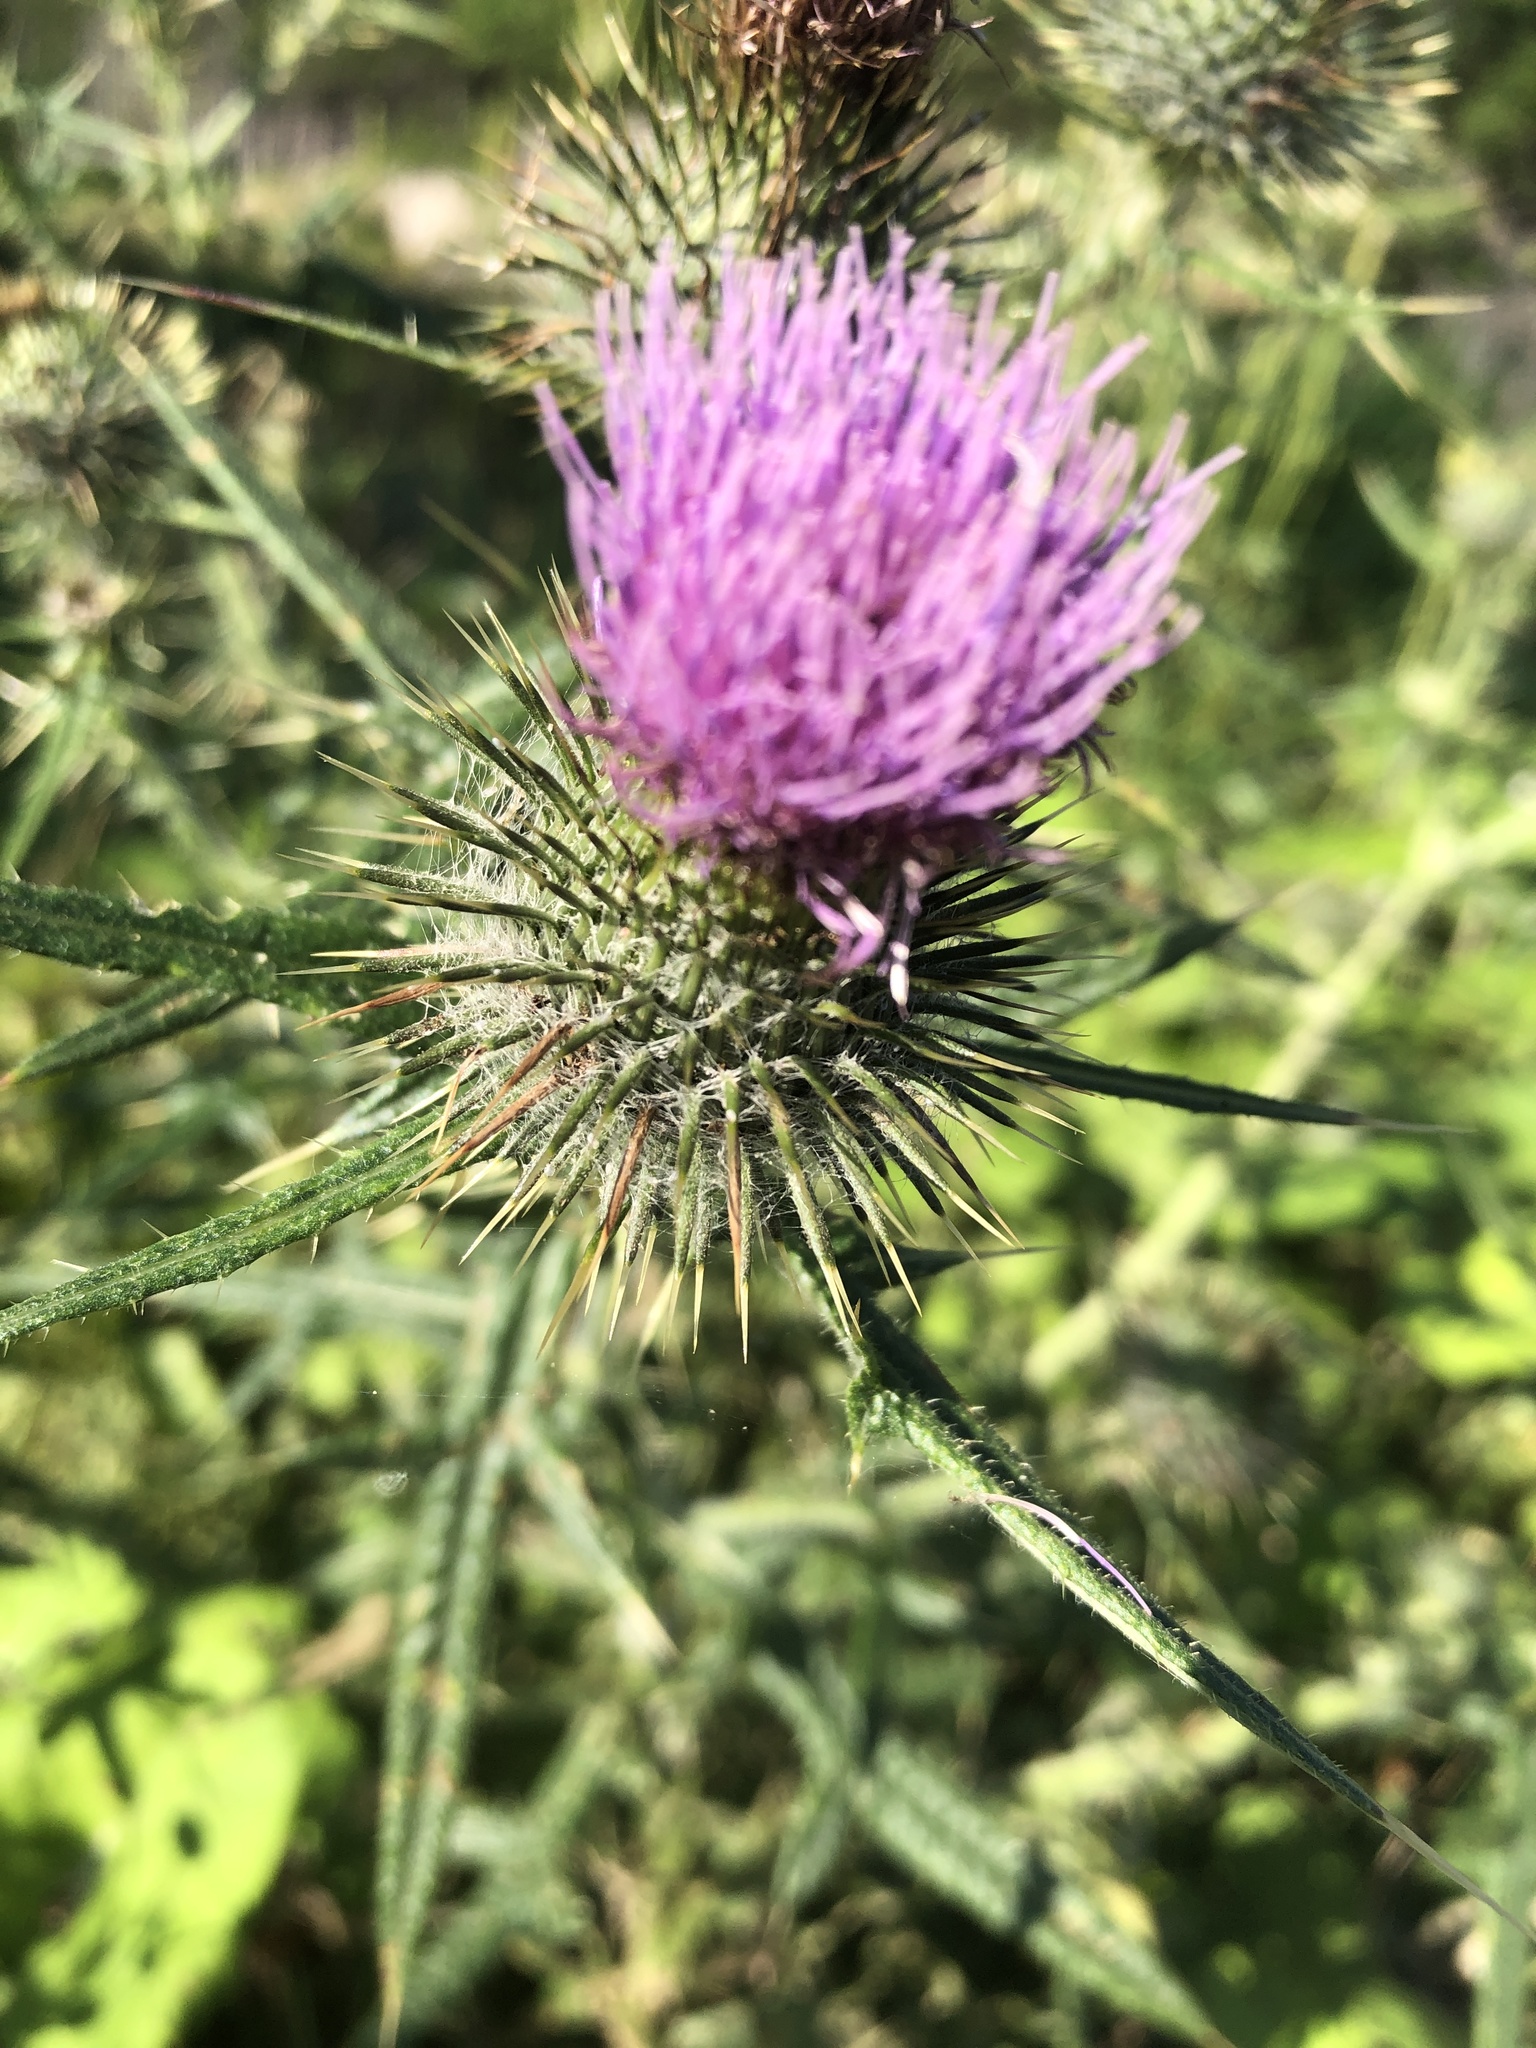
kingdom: Plantae
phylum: Tracheophyta
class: Magnoliopsida
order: Asterales
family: Asteraceae
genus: Cirsium
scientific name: Cirsium vulgare
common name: Bull thistle
